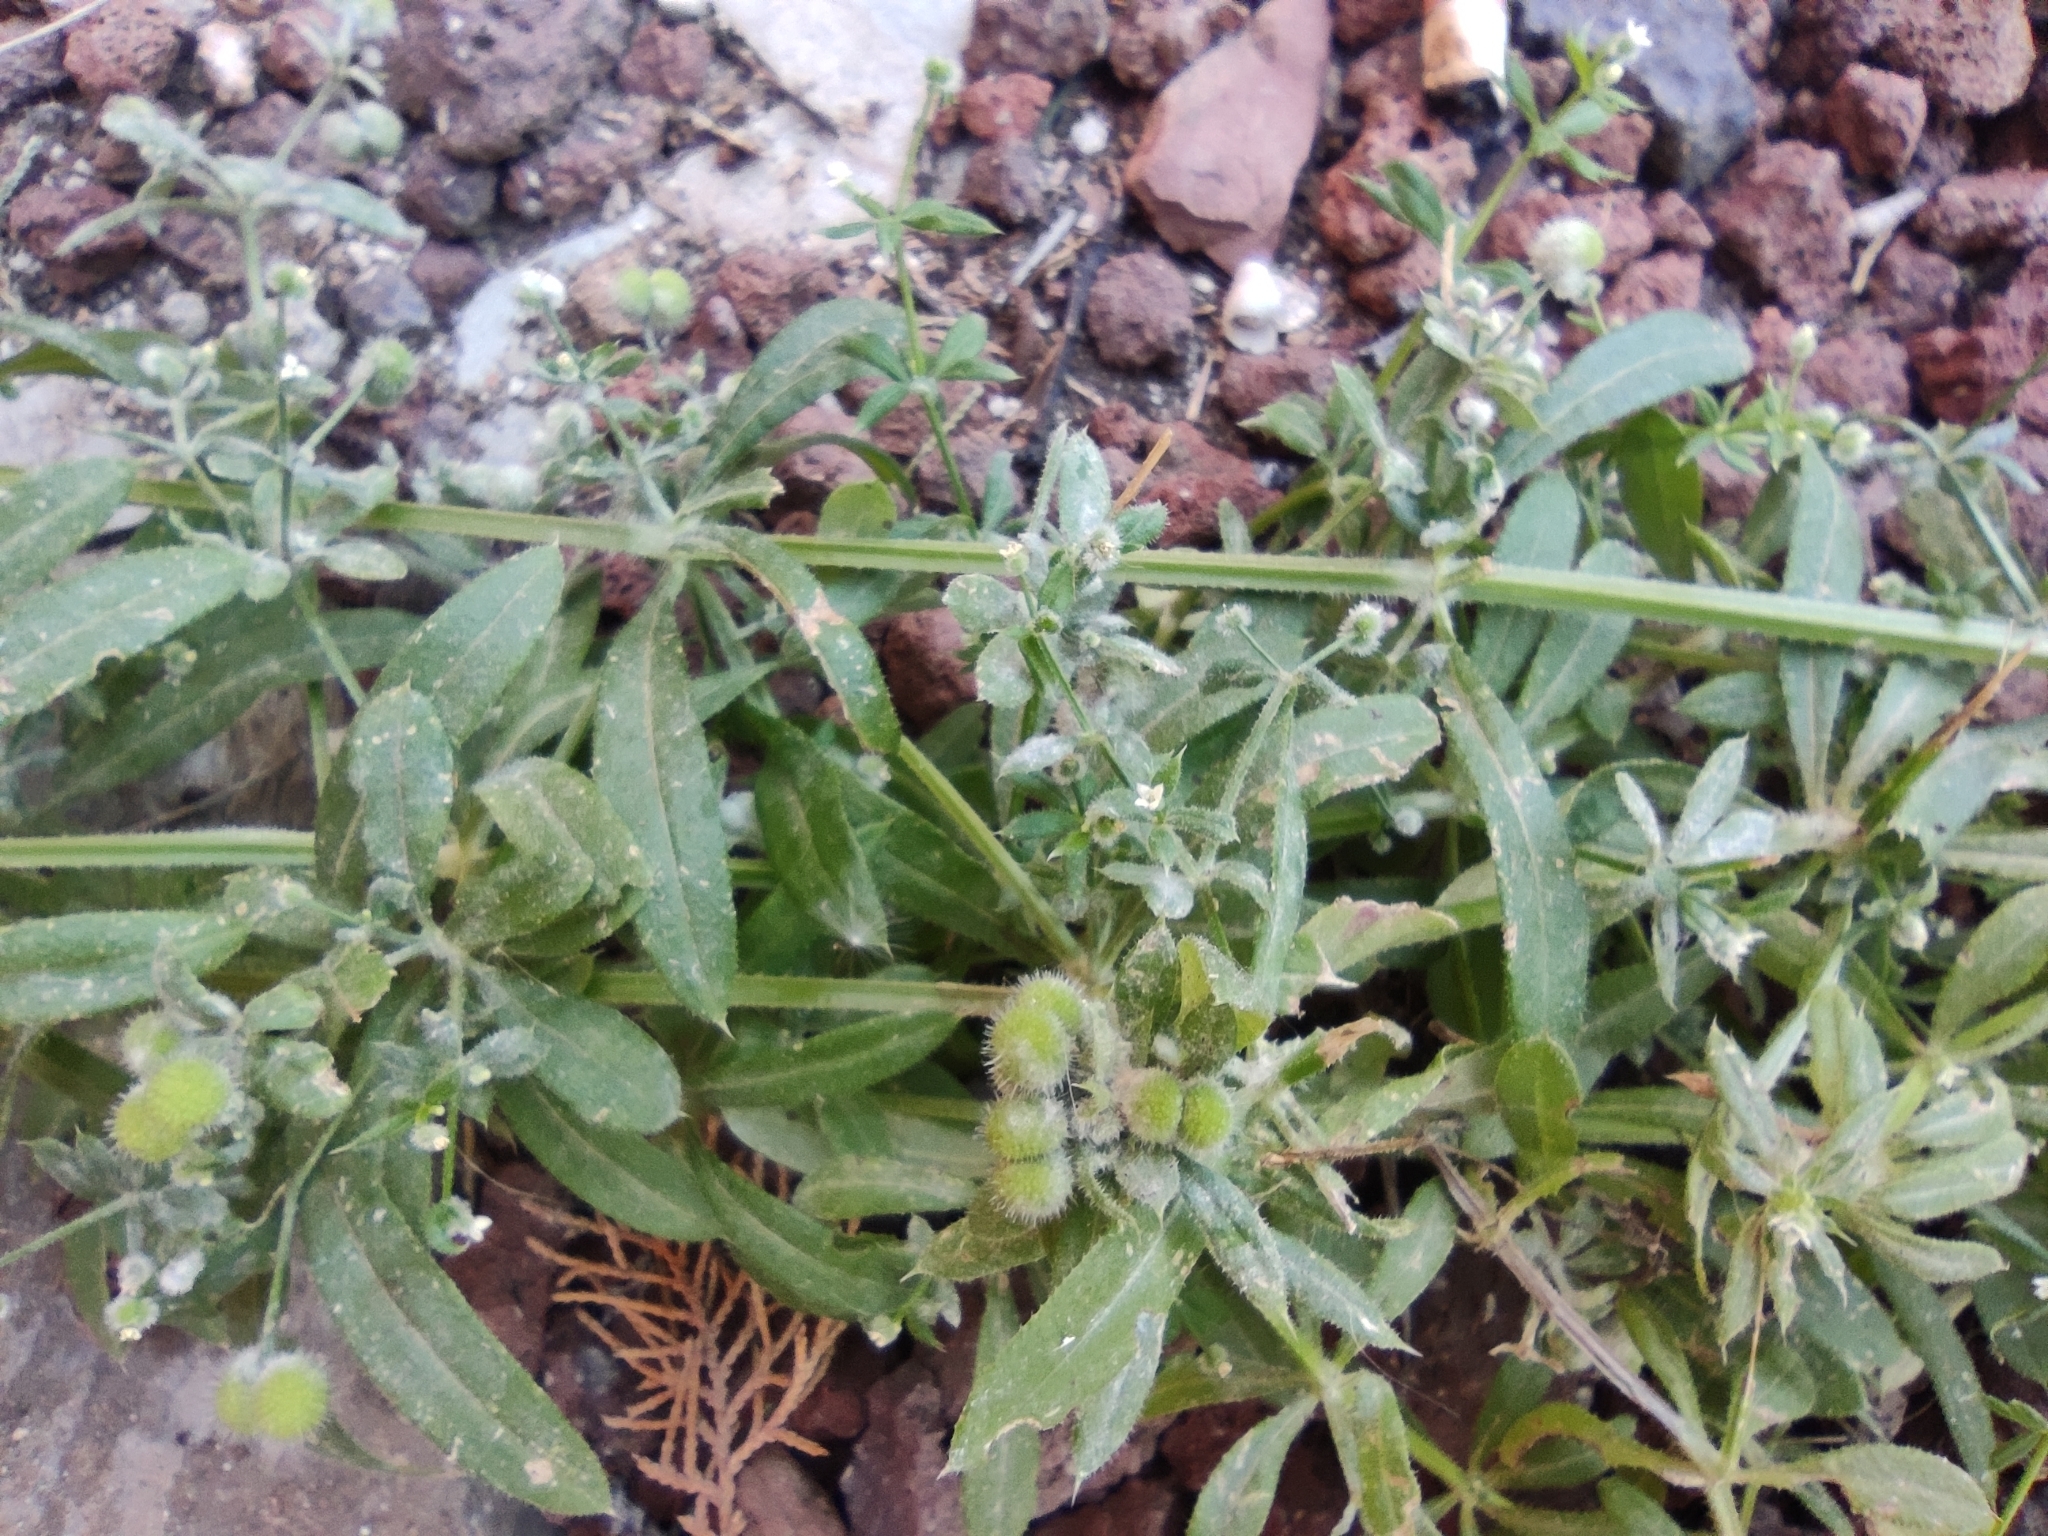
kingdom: Plantae
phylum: Tracheophyta
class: Magnoliopsida
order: Gentianales
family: Rubiaceae
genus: Galium
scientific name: Galium aparine
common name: Cleavers
